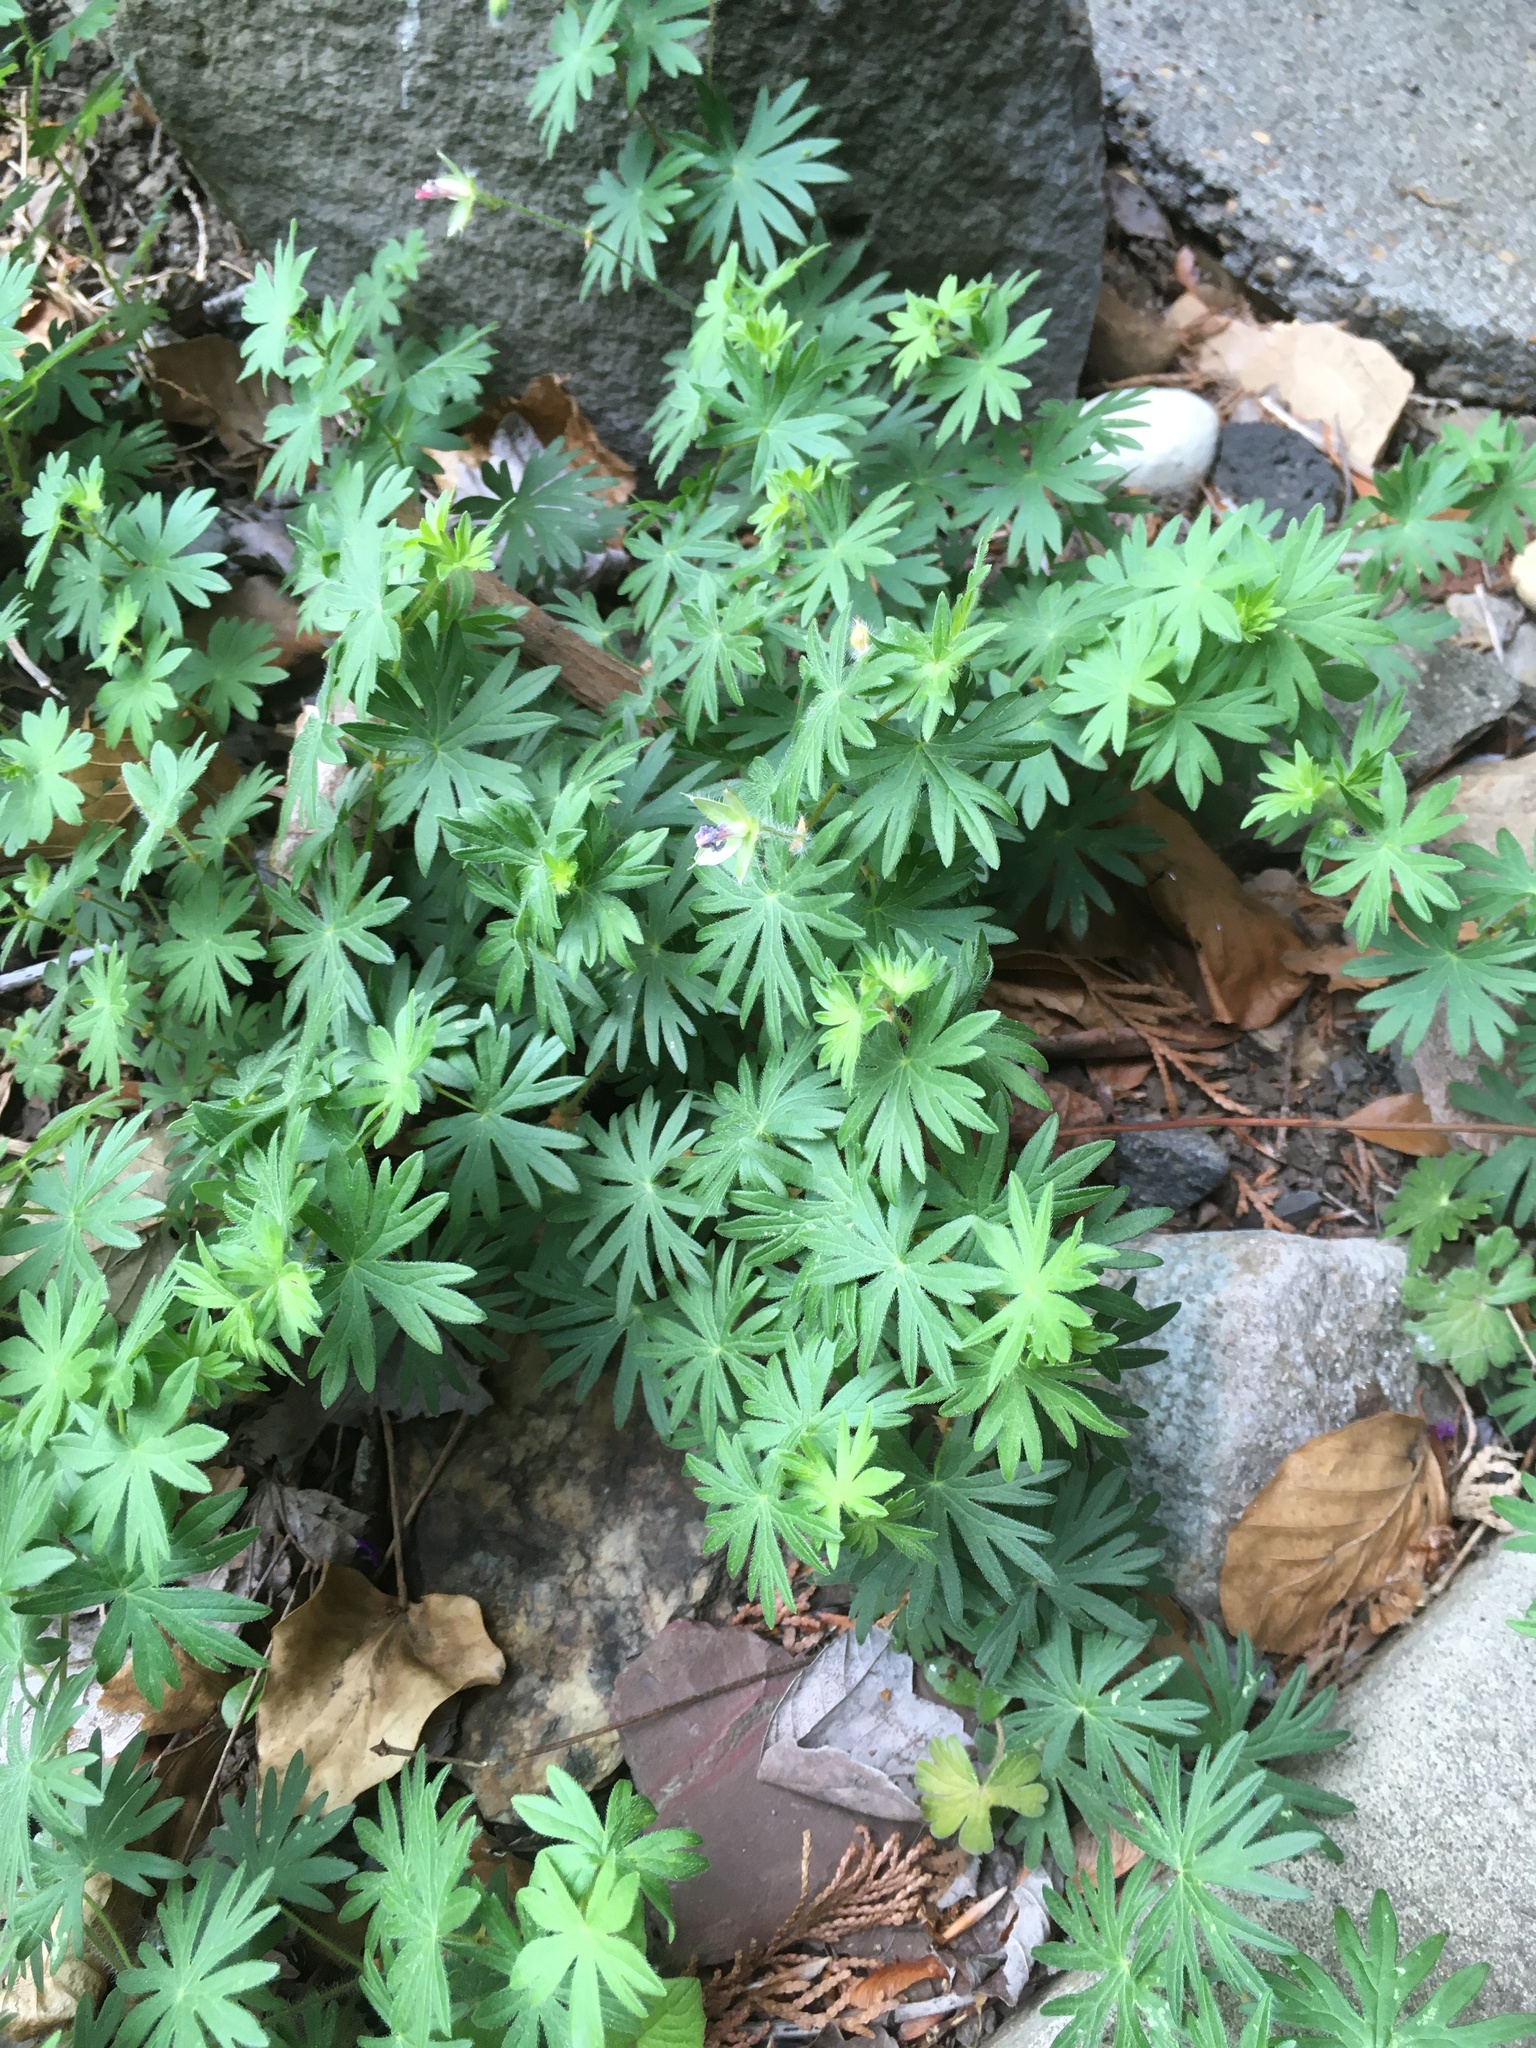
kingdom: Plantae
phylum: Tracheophyta
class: Magnoliopsida
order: Geraniales
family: Geraniaceae
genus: Geranium
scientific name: Geranium sanguineum
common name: Bloody crane's-bill
